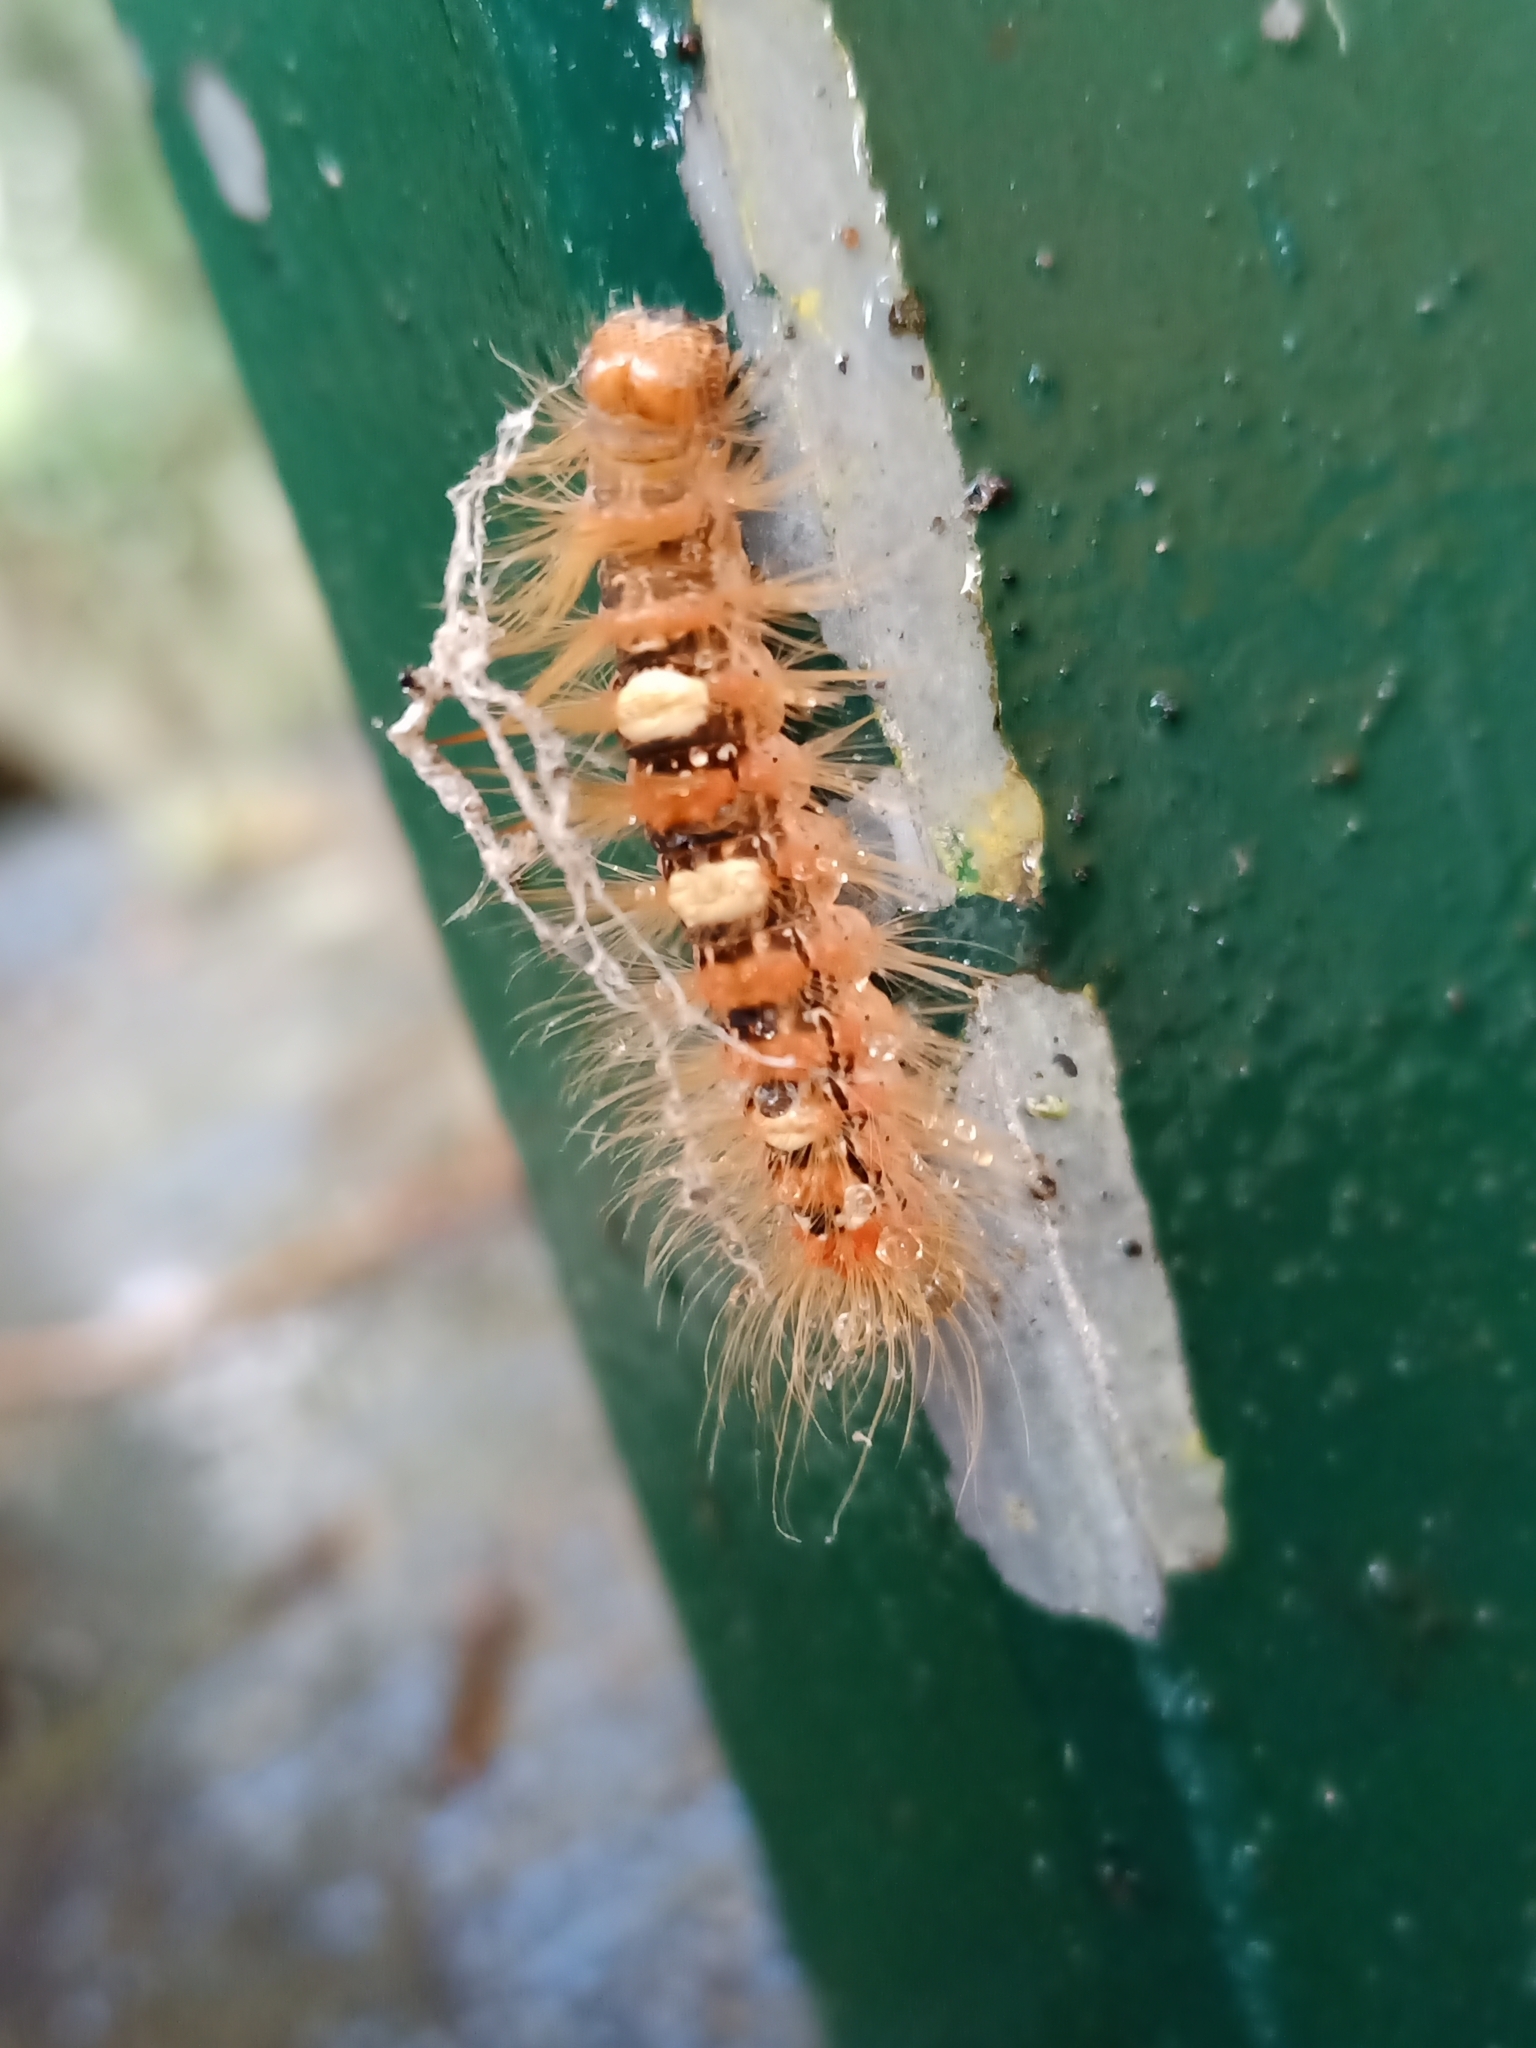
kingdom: Animalia
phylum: Arthropoda
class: Insecta
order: Lepidoptera
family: Noctuidae
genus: Moma
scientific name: Moma alpium
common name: Scarce merveille du jour
